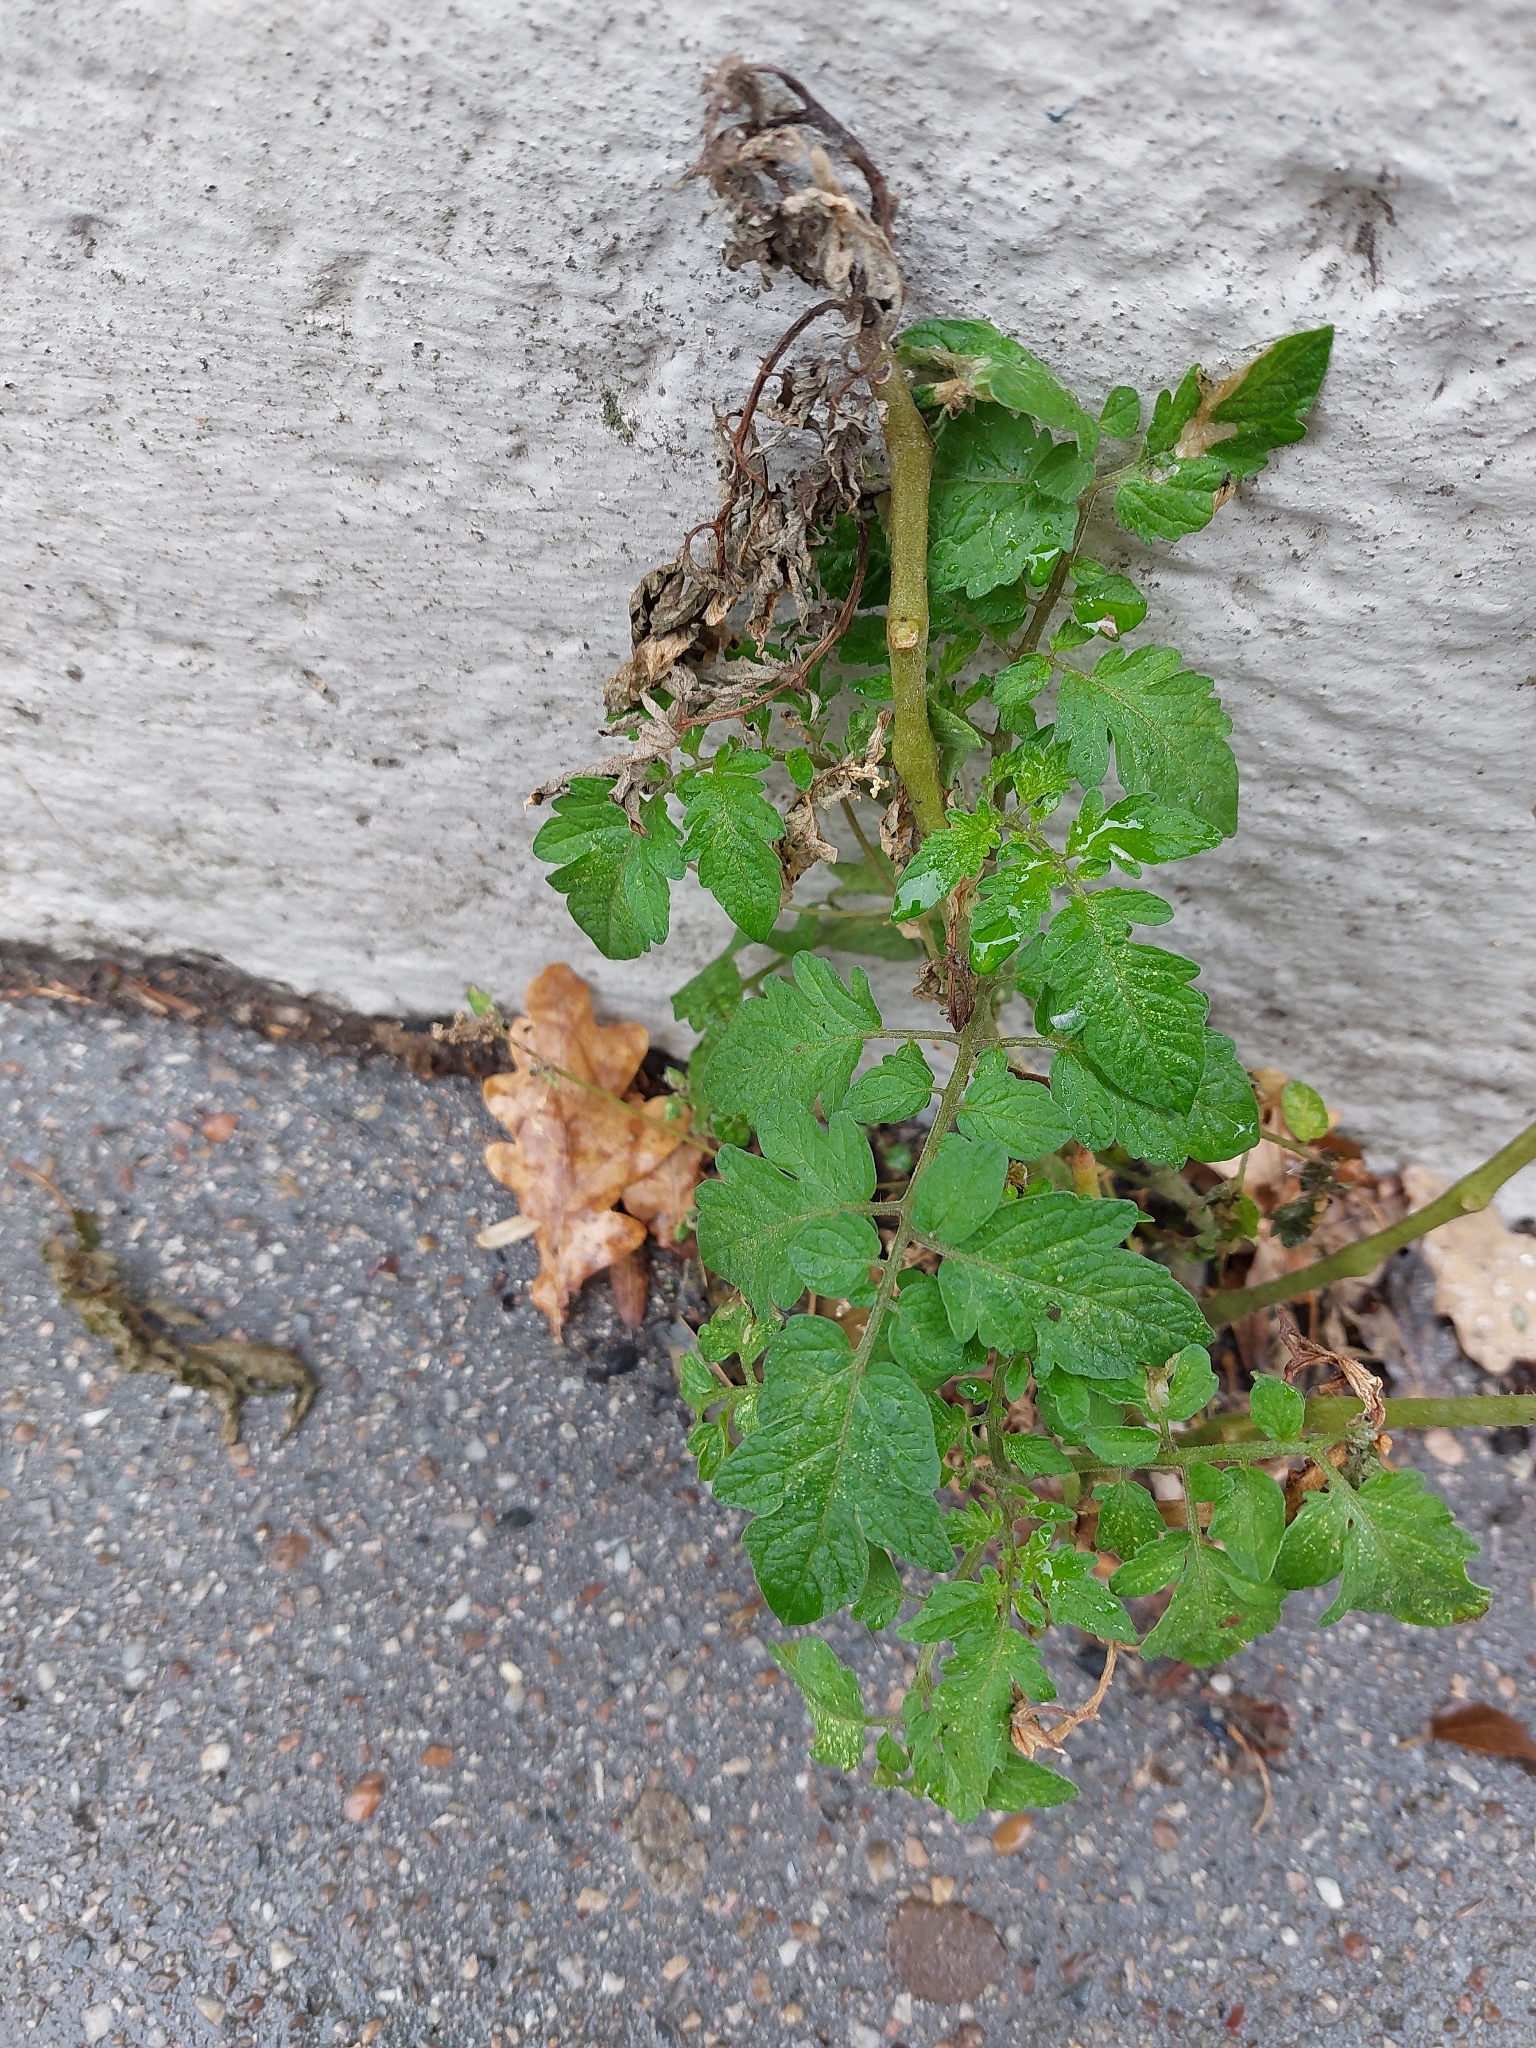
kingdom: Plantae
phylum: Tracheophyta
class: Magnoliopsida
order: Solanales
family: Solanaceae
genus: Solanum
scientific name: Solanum lycopersicum
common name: Garden tomato
